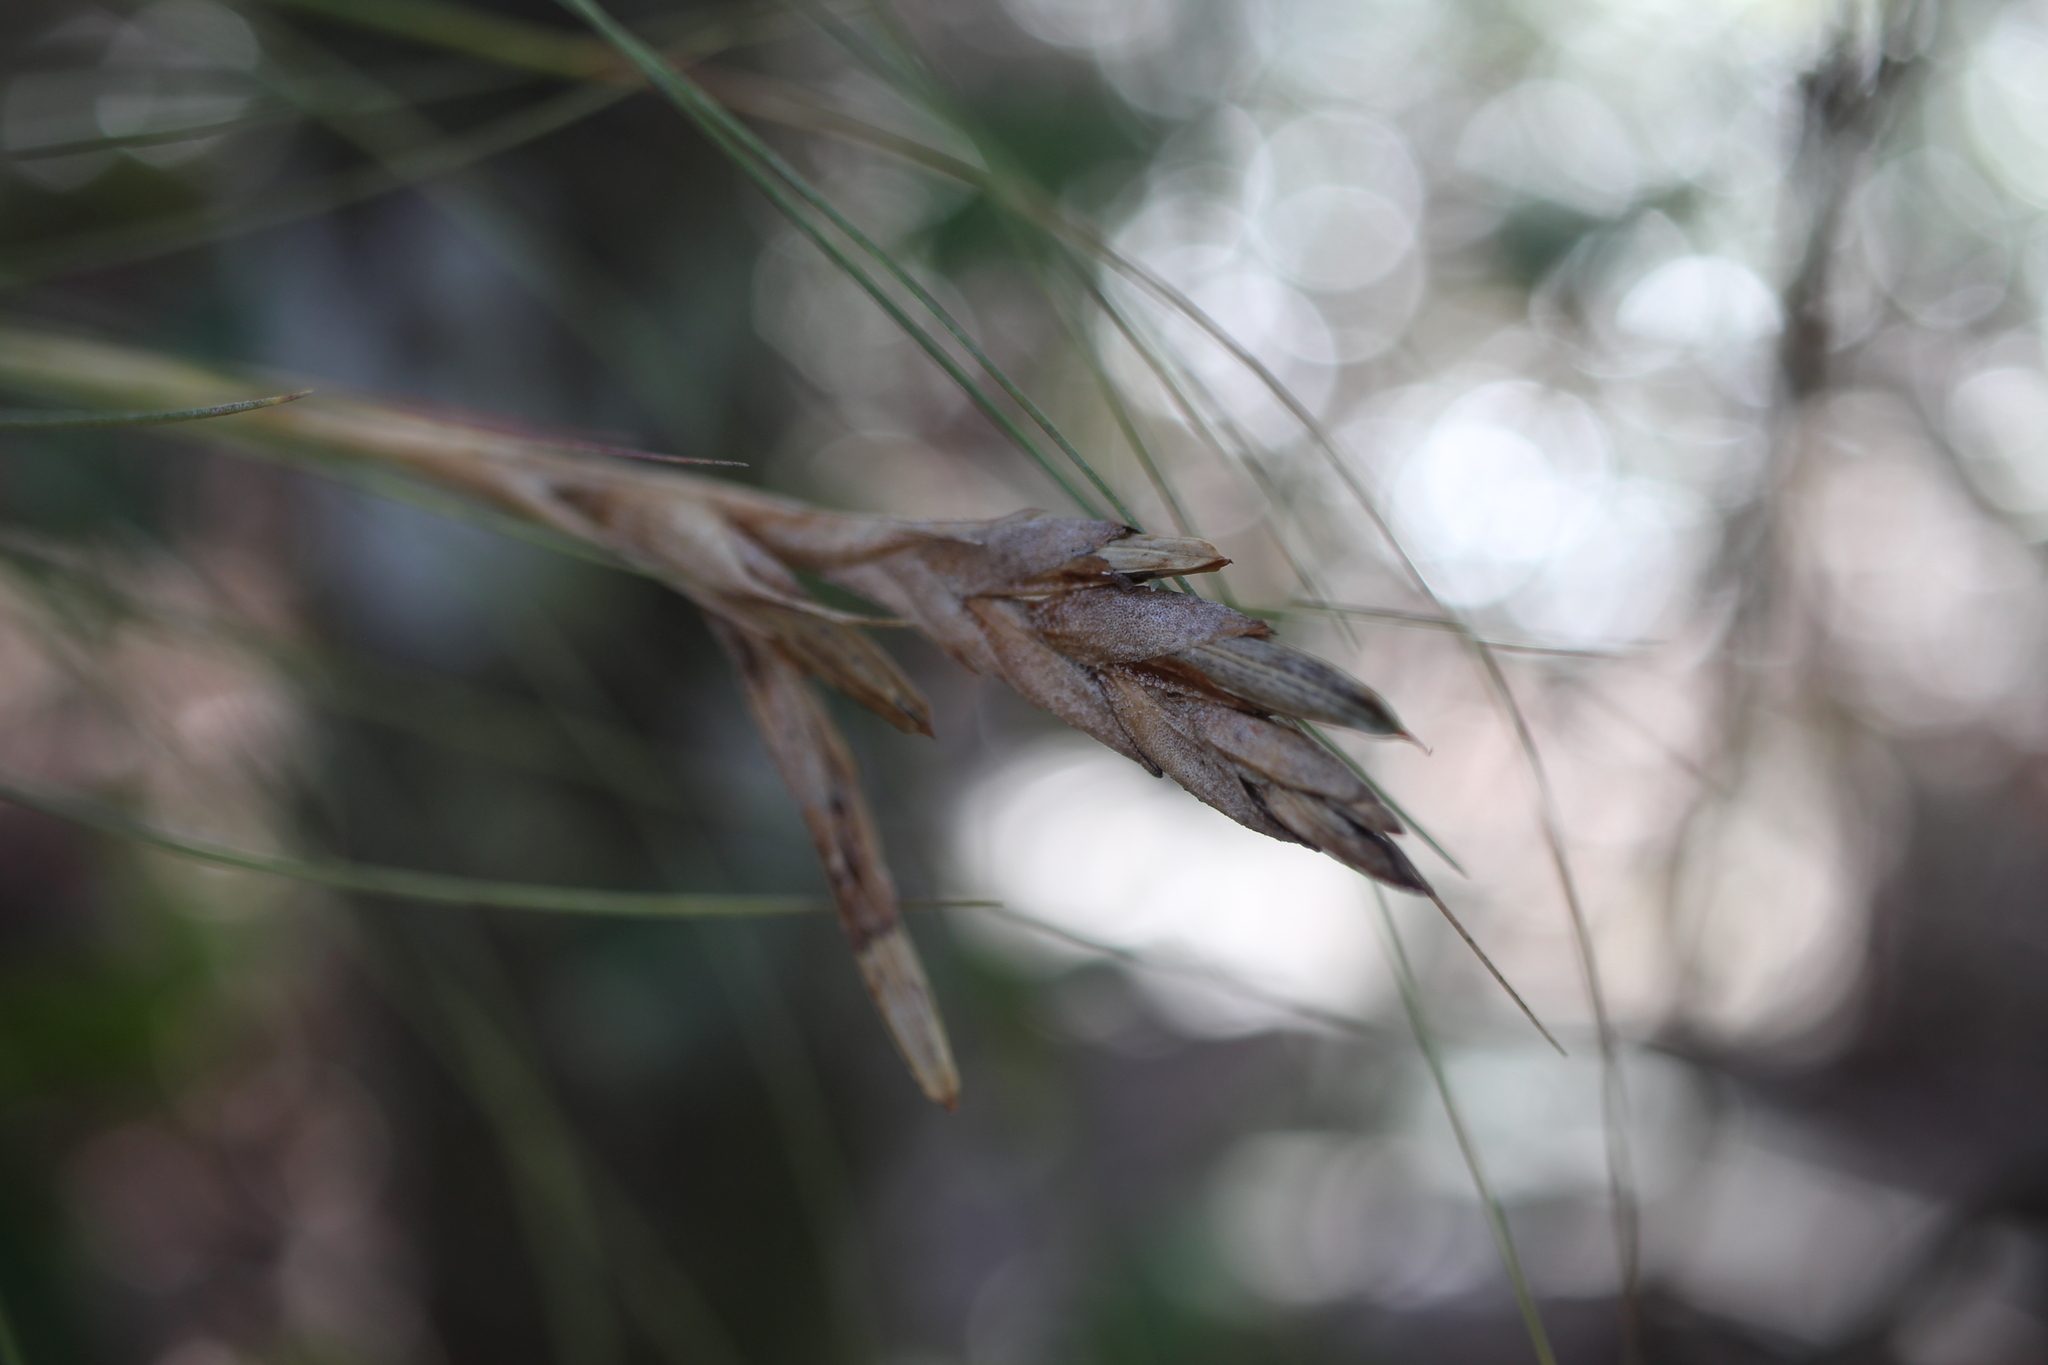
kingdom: Plantae
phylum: Tracheophyta
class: Liliopsida
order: Poales
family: Bromeliaceae
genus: Tillandsia
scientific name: Tillandsia bartramii
